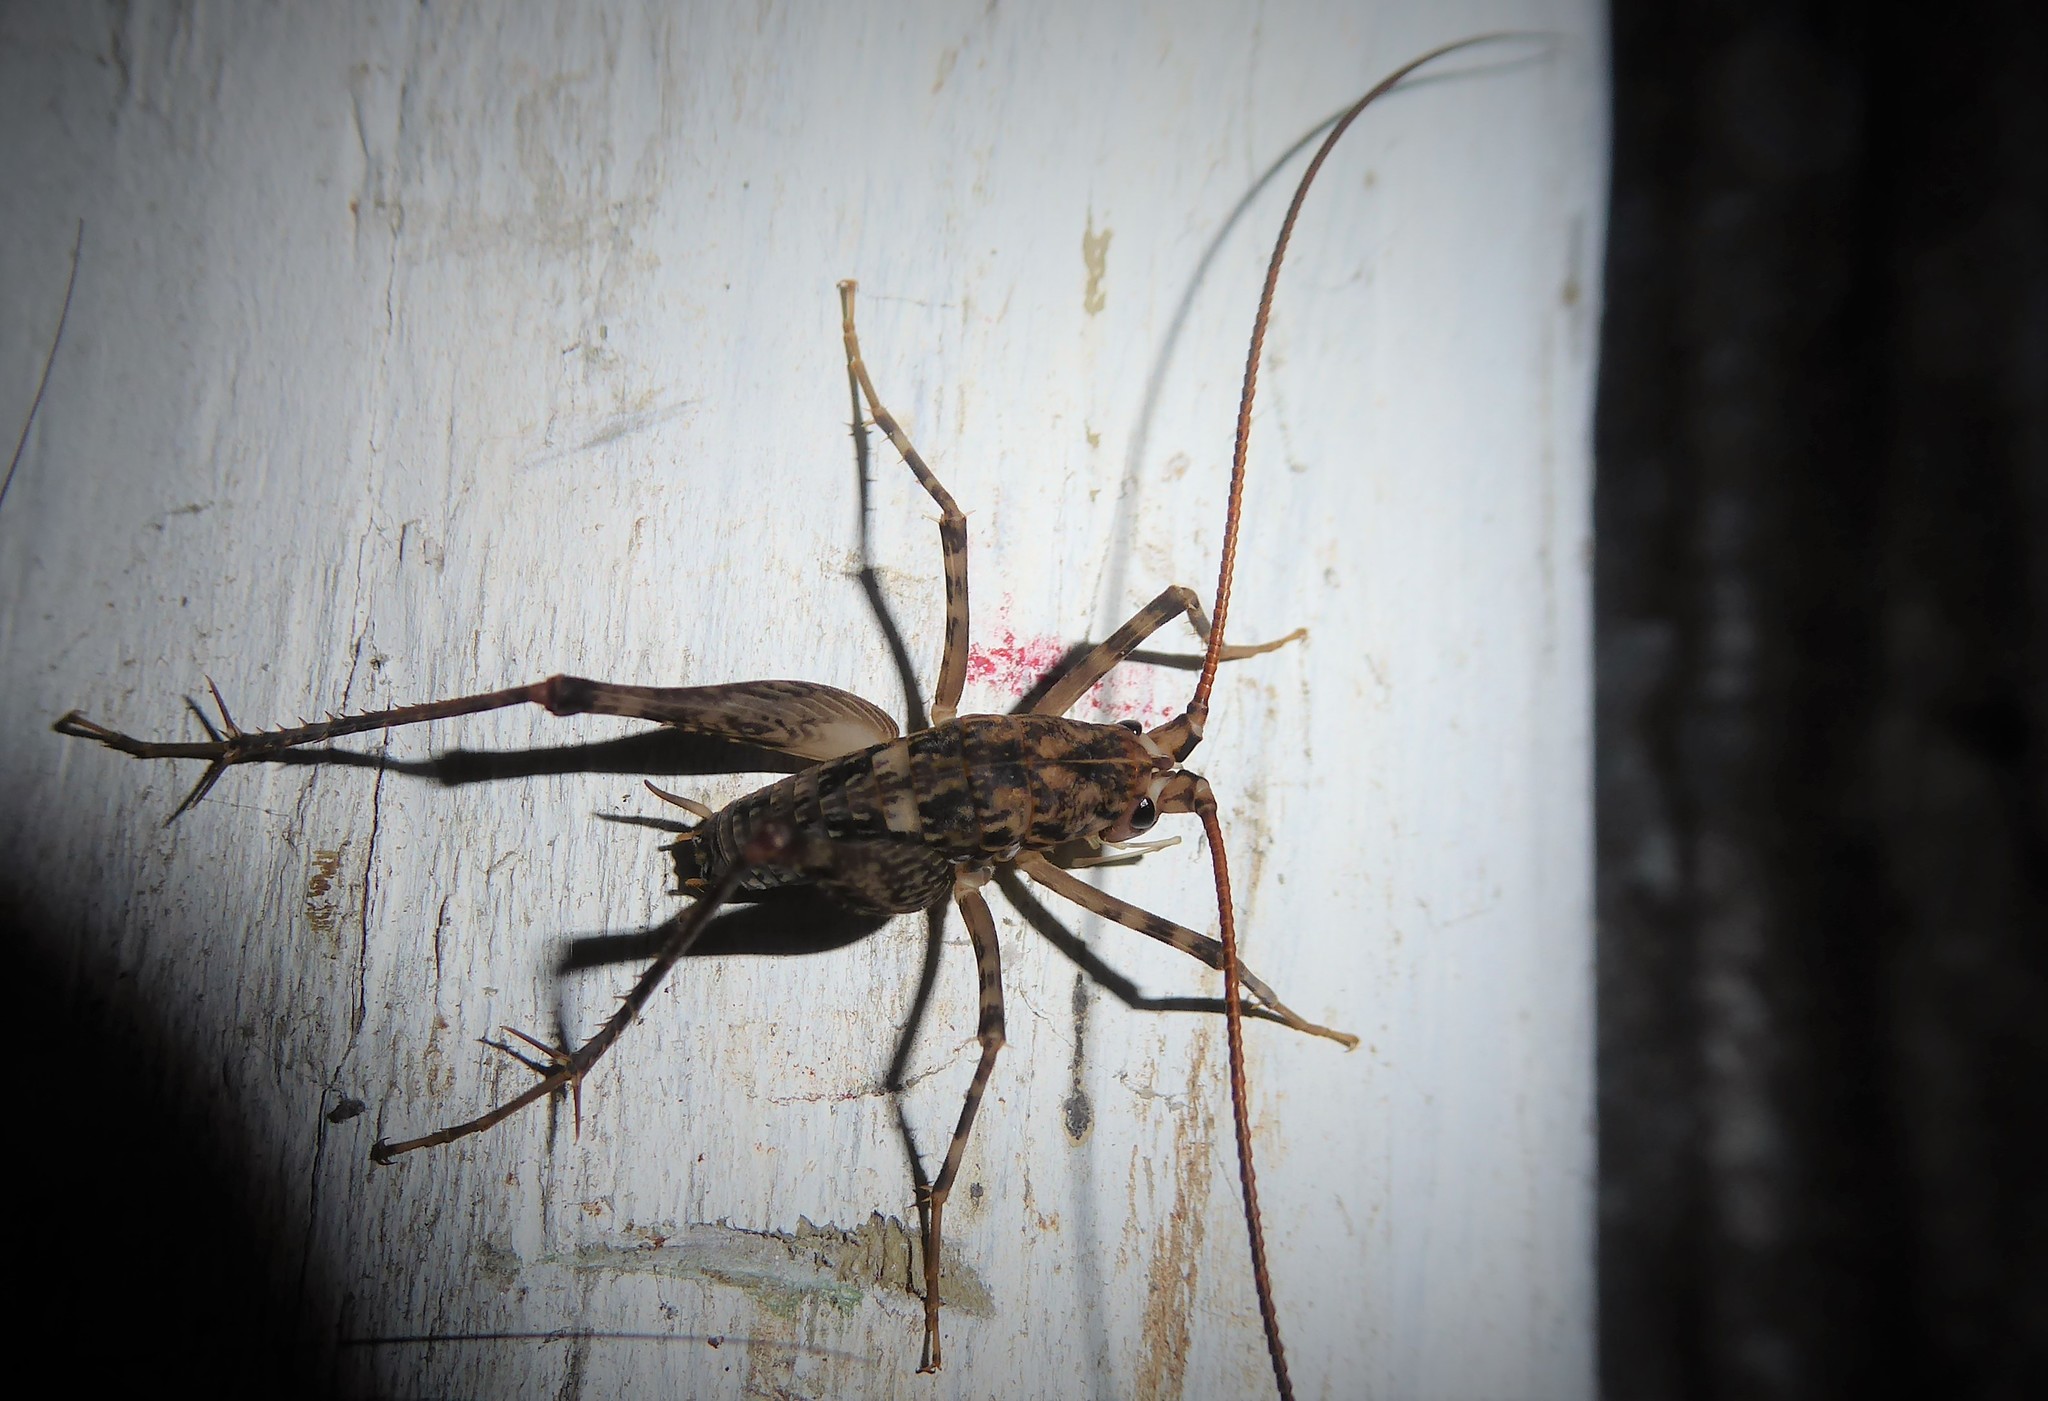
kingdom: Animalia
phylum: Arthropoda
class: Insecta
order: Orthoptera
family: Rhaphidophoridae
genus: Pleioplectron
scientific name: Pleioplectron simplex
